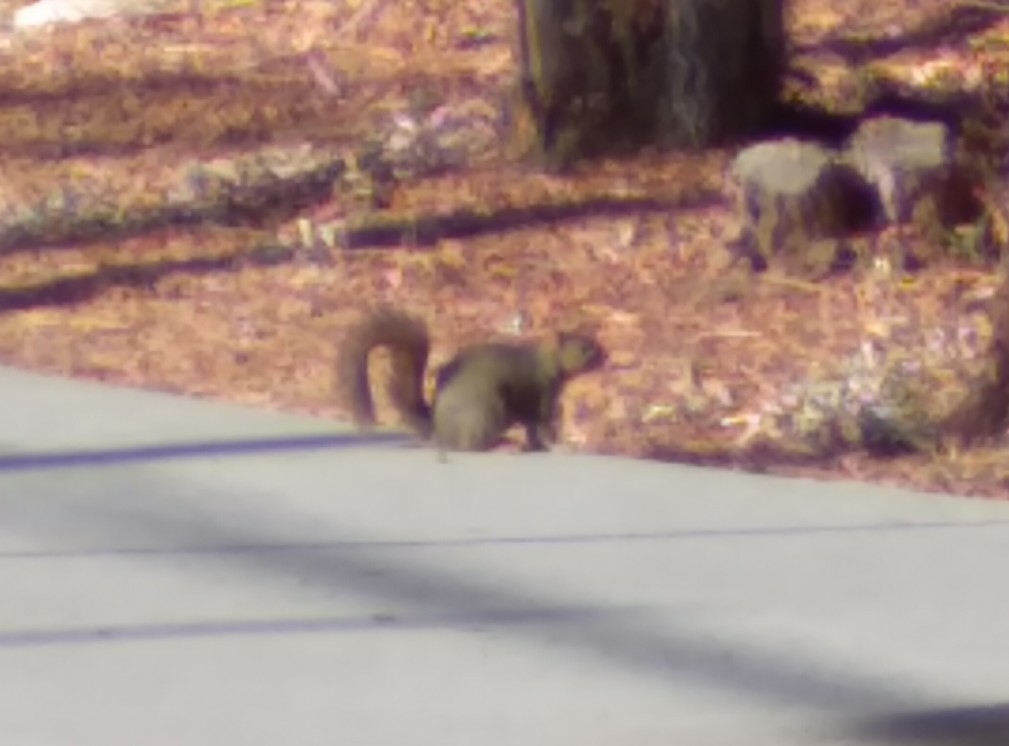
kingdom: Animalia
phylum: Chordata
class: Mammalia
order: Rodentia
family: Sciuridae
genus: Sciurus
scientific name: Sciurus niger
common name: Fox squirrel
